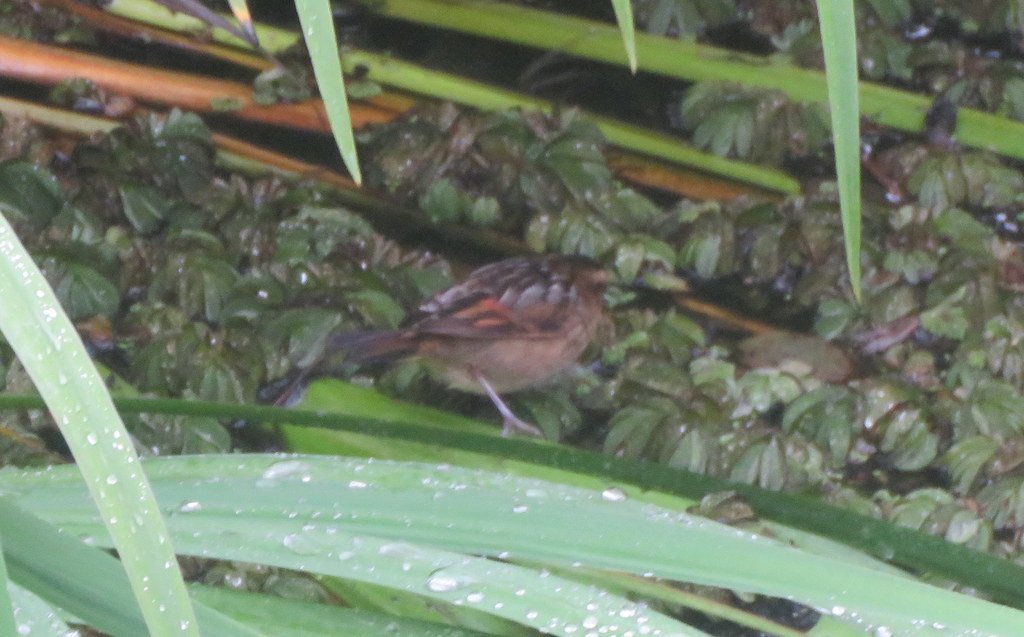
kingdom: Animalia
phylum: Chordata
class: Aves
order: Passeriformes
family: Furnariidae
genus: Phleocryptes
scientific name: Phleocryptes melanops
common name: Wren-like rushbird
